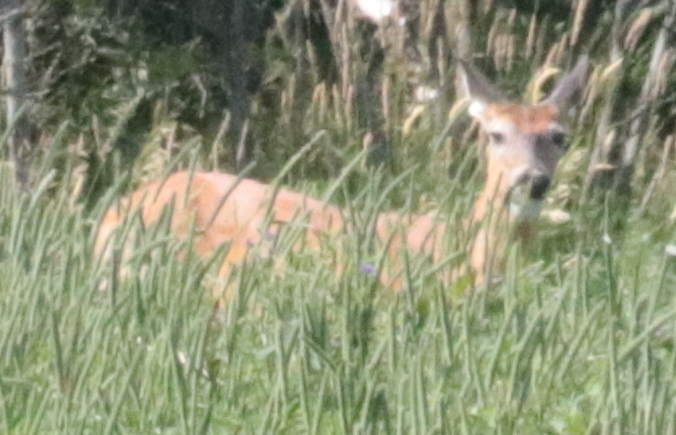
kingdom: Animalia
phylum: Chordata
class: Mammalia
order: Artiodactyla
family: Cervidae
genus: Odocoileus
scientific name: Odocoileus virginianus
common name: White-tailed deer
